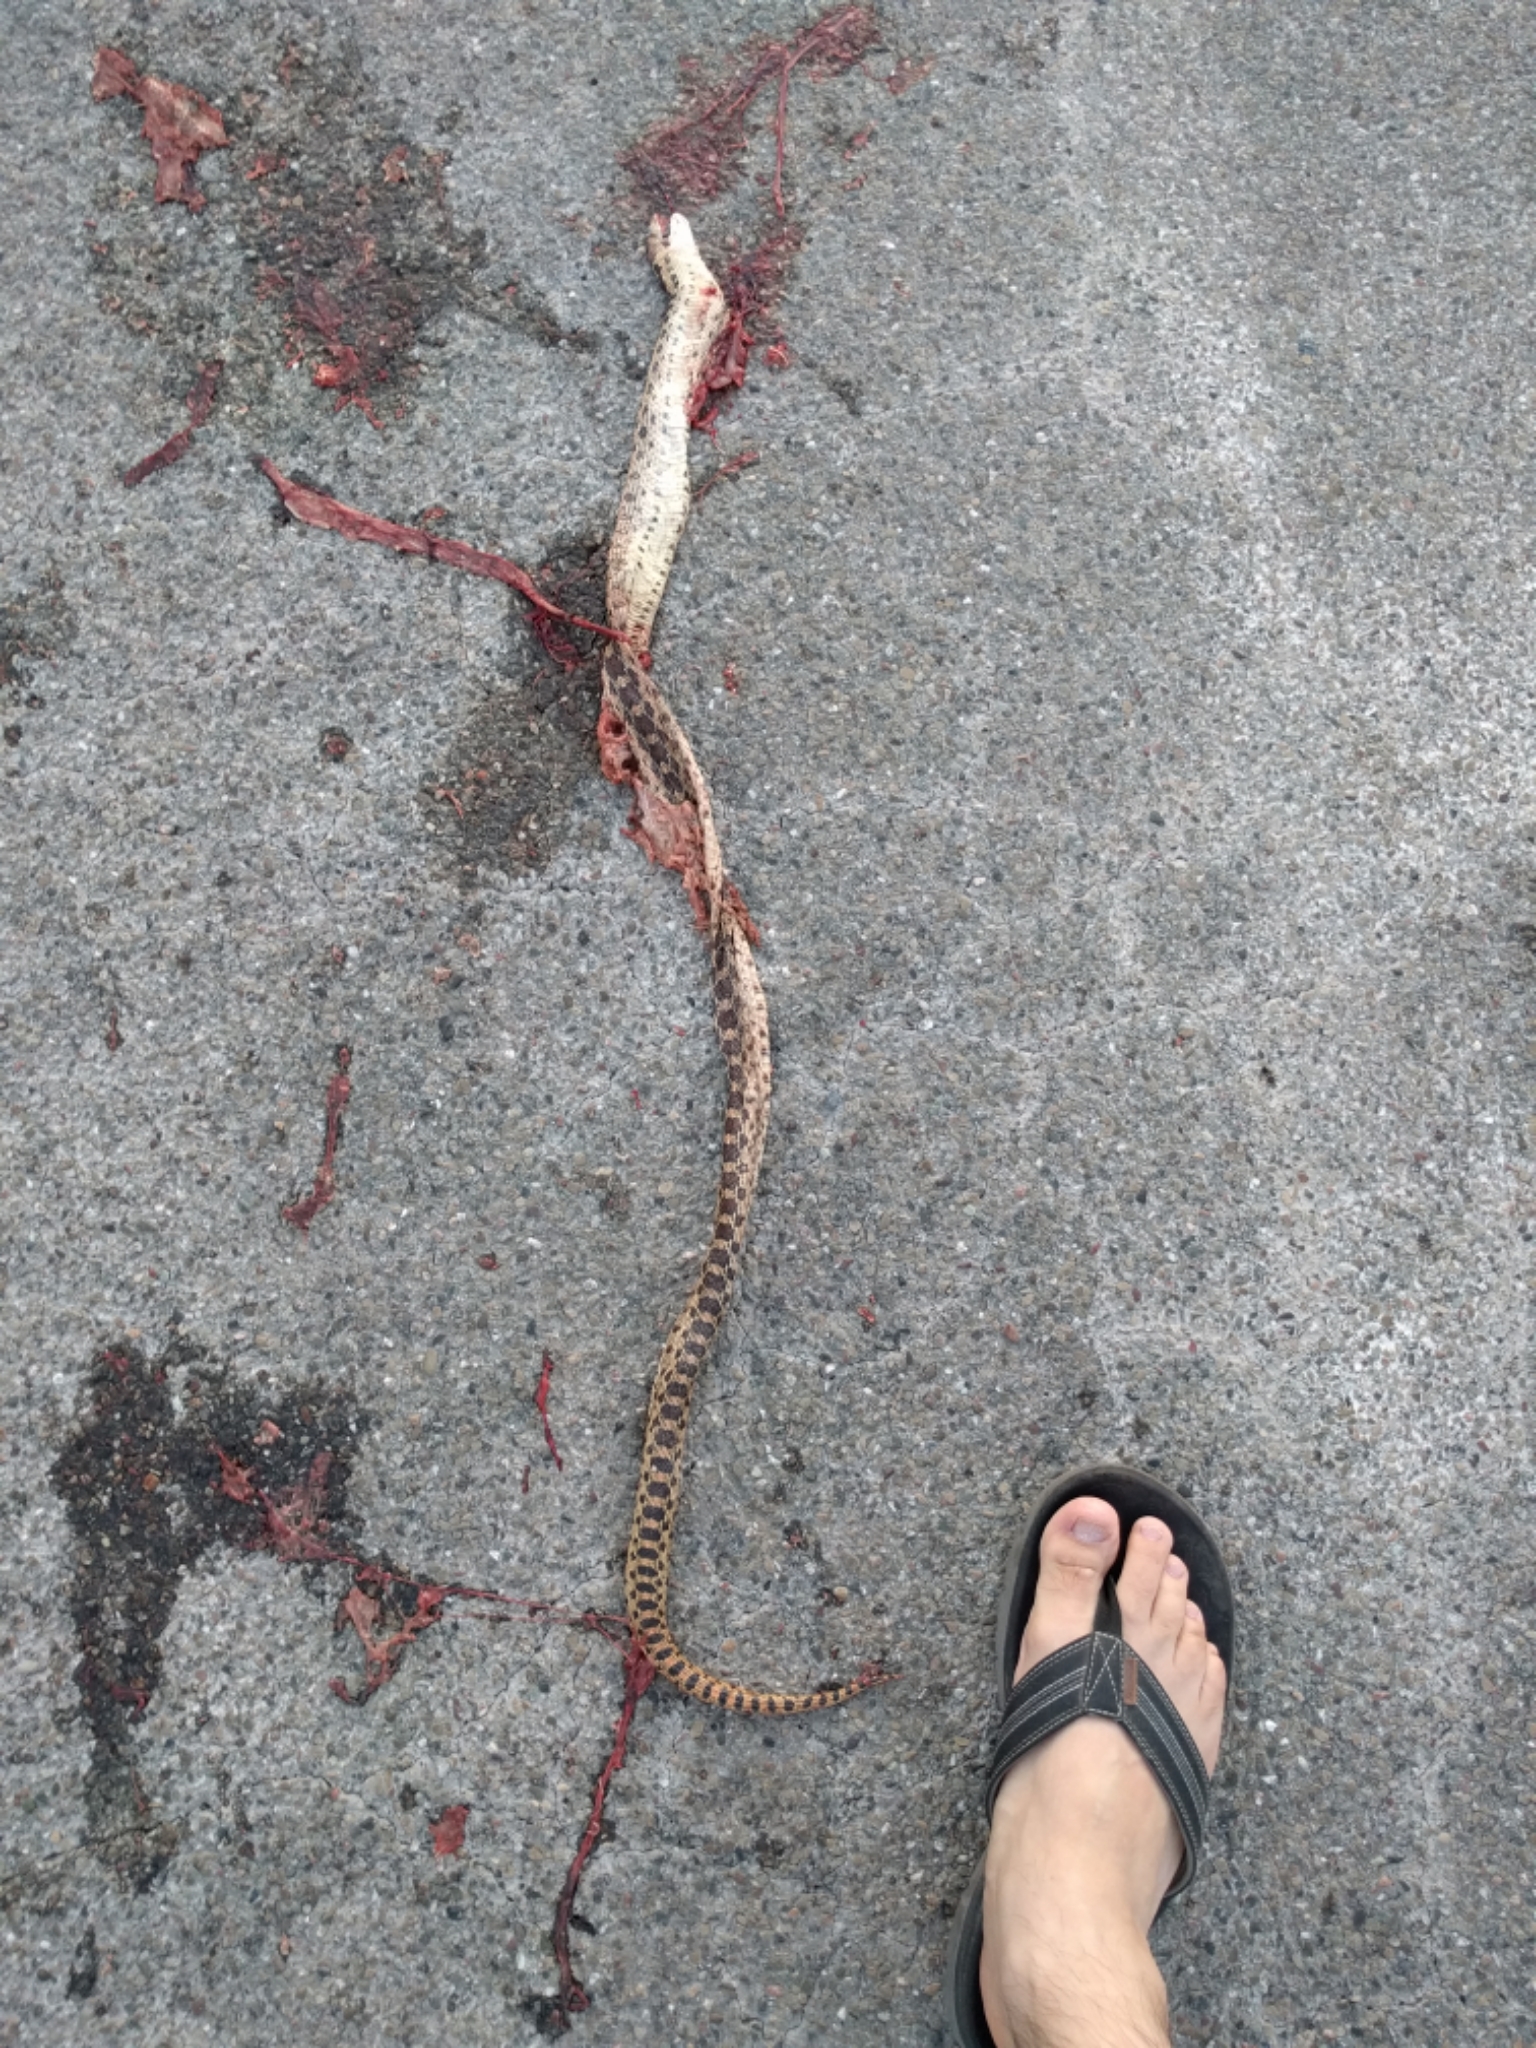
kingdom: Animalia
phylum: Chordata
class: Squamata
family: Colubridae
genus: Pituophis
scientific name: Pituophis catenifer
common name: Gopher snake
